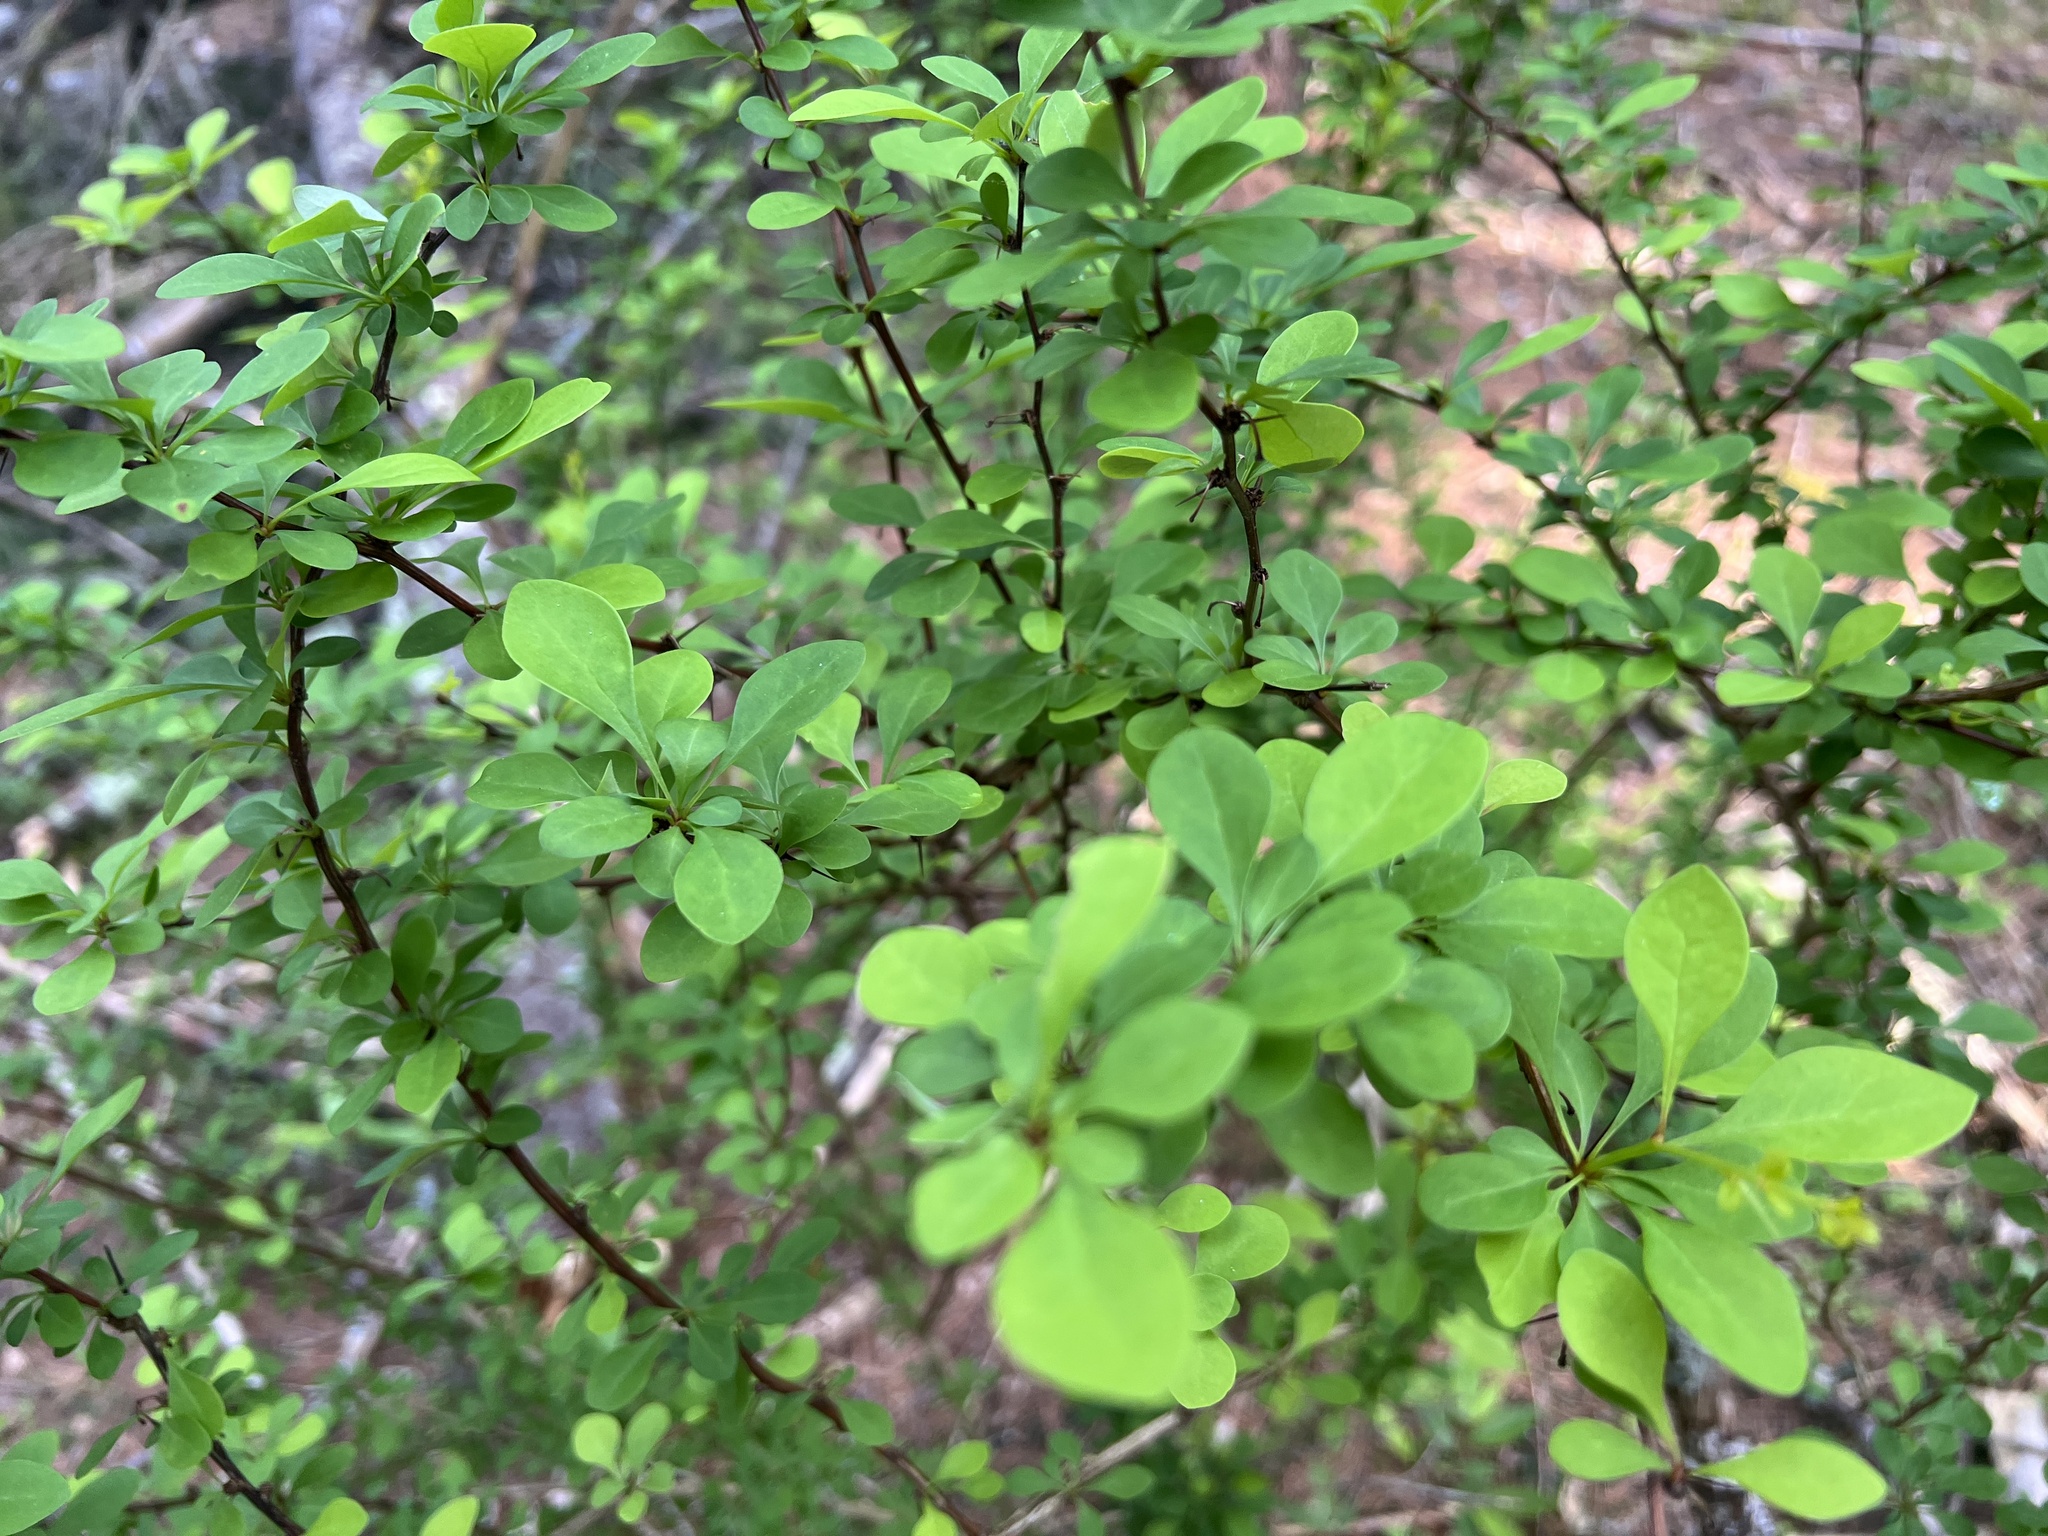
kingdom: Plantae
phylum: Tracheophyta
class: Magnoliopsida
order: Ranunculales
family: Berberidaceae
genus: Berberis
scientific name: Berberis thunbergii
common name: Japanese barberry
